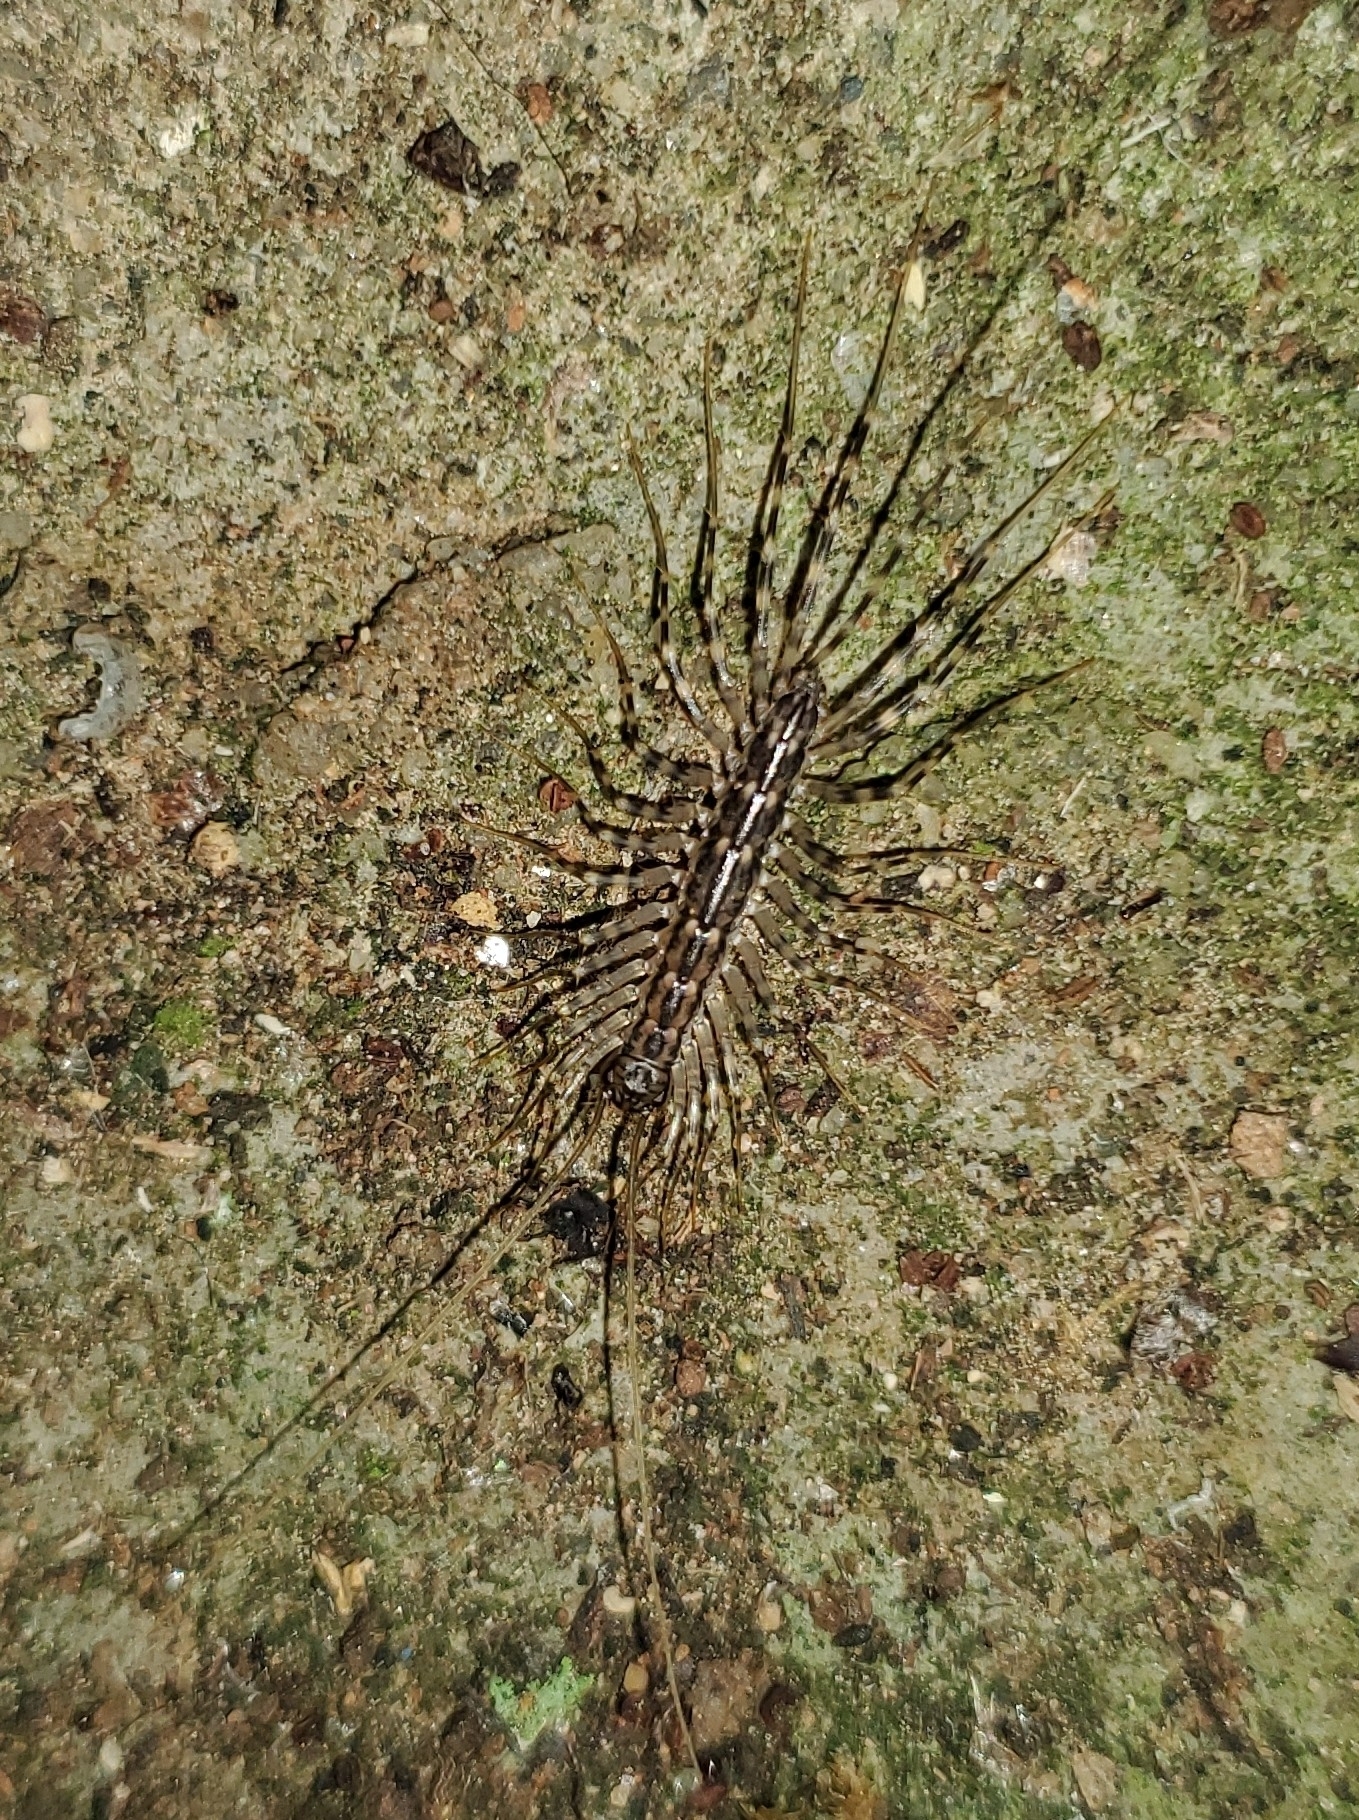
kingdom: Animalia
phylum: Arthropoda
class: Chilopoda
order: Scutigeromorpha
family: Scutigeridae
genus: Scutigera
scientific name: Scutigera coleoptrata
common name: House centipede
